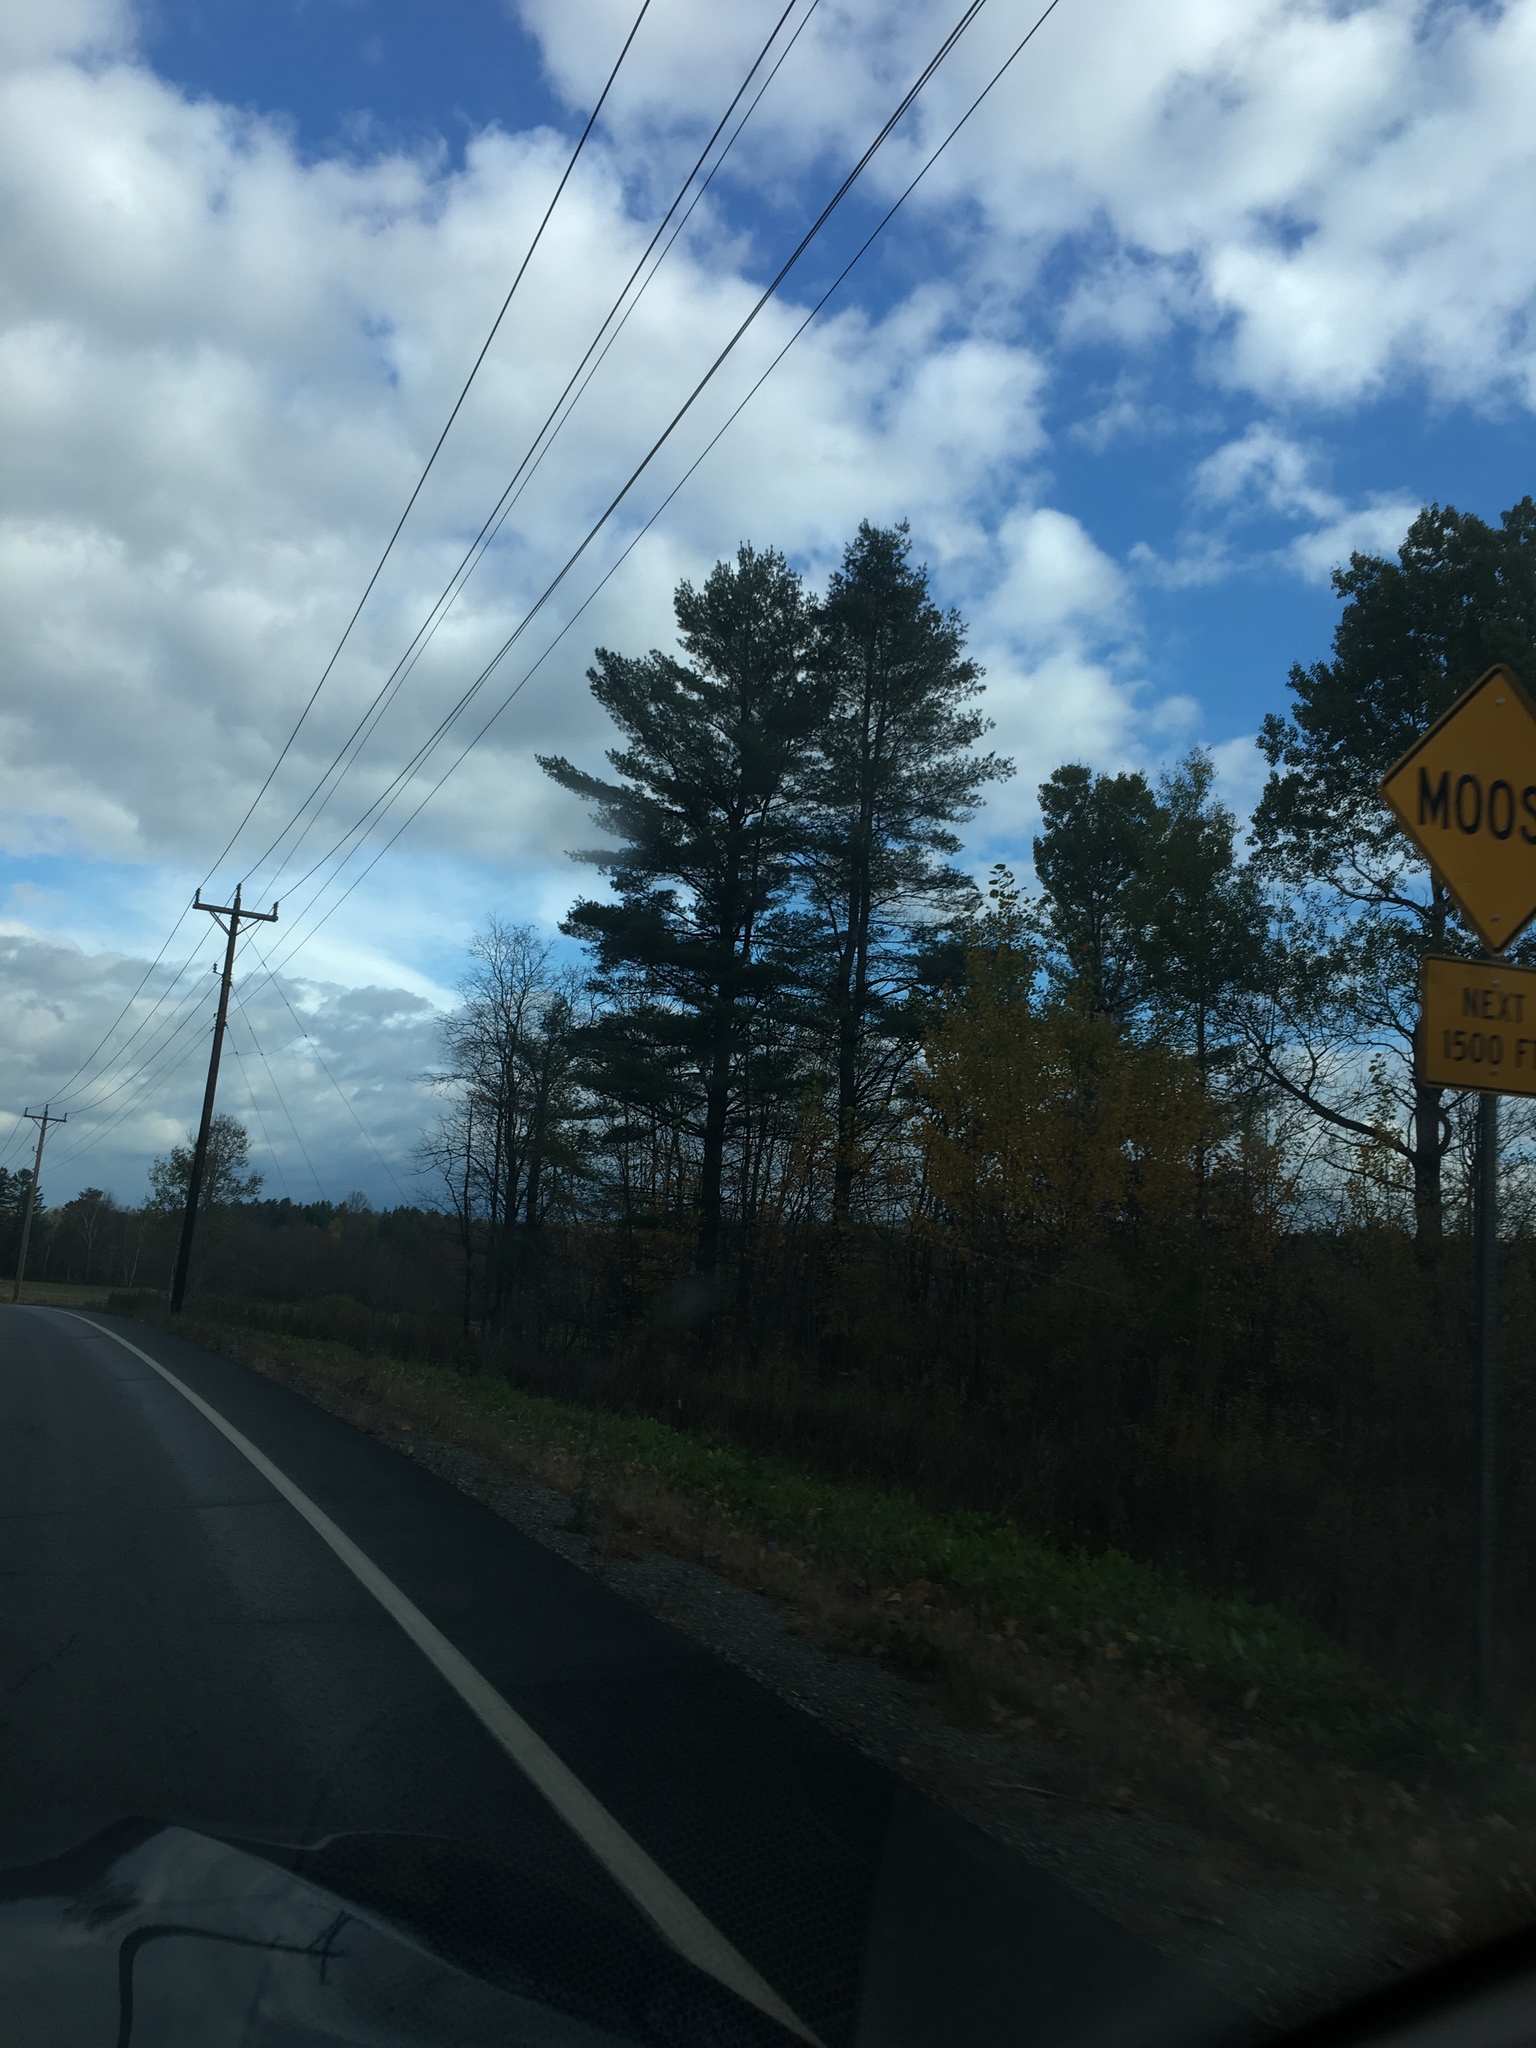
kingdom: Plantae
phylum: Tracheophyta
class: Pinopsida
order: Pinales
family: Pinaceae
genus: Pinus
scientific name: Pinus strobus
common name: Weymouth pine
